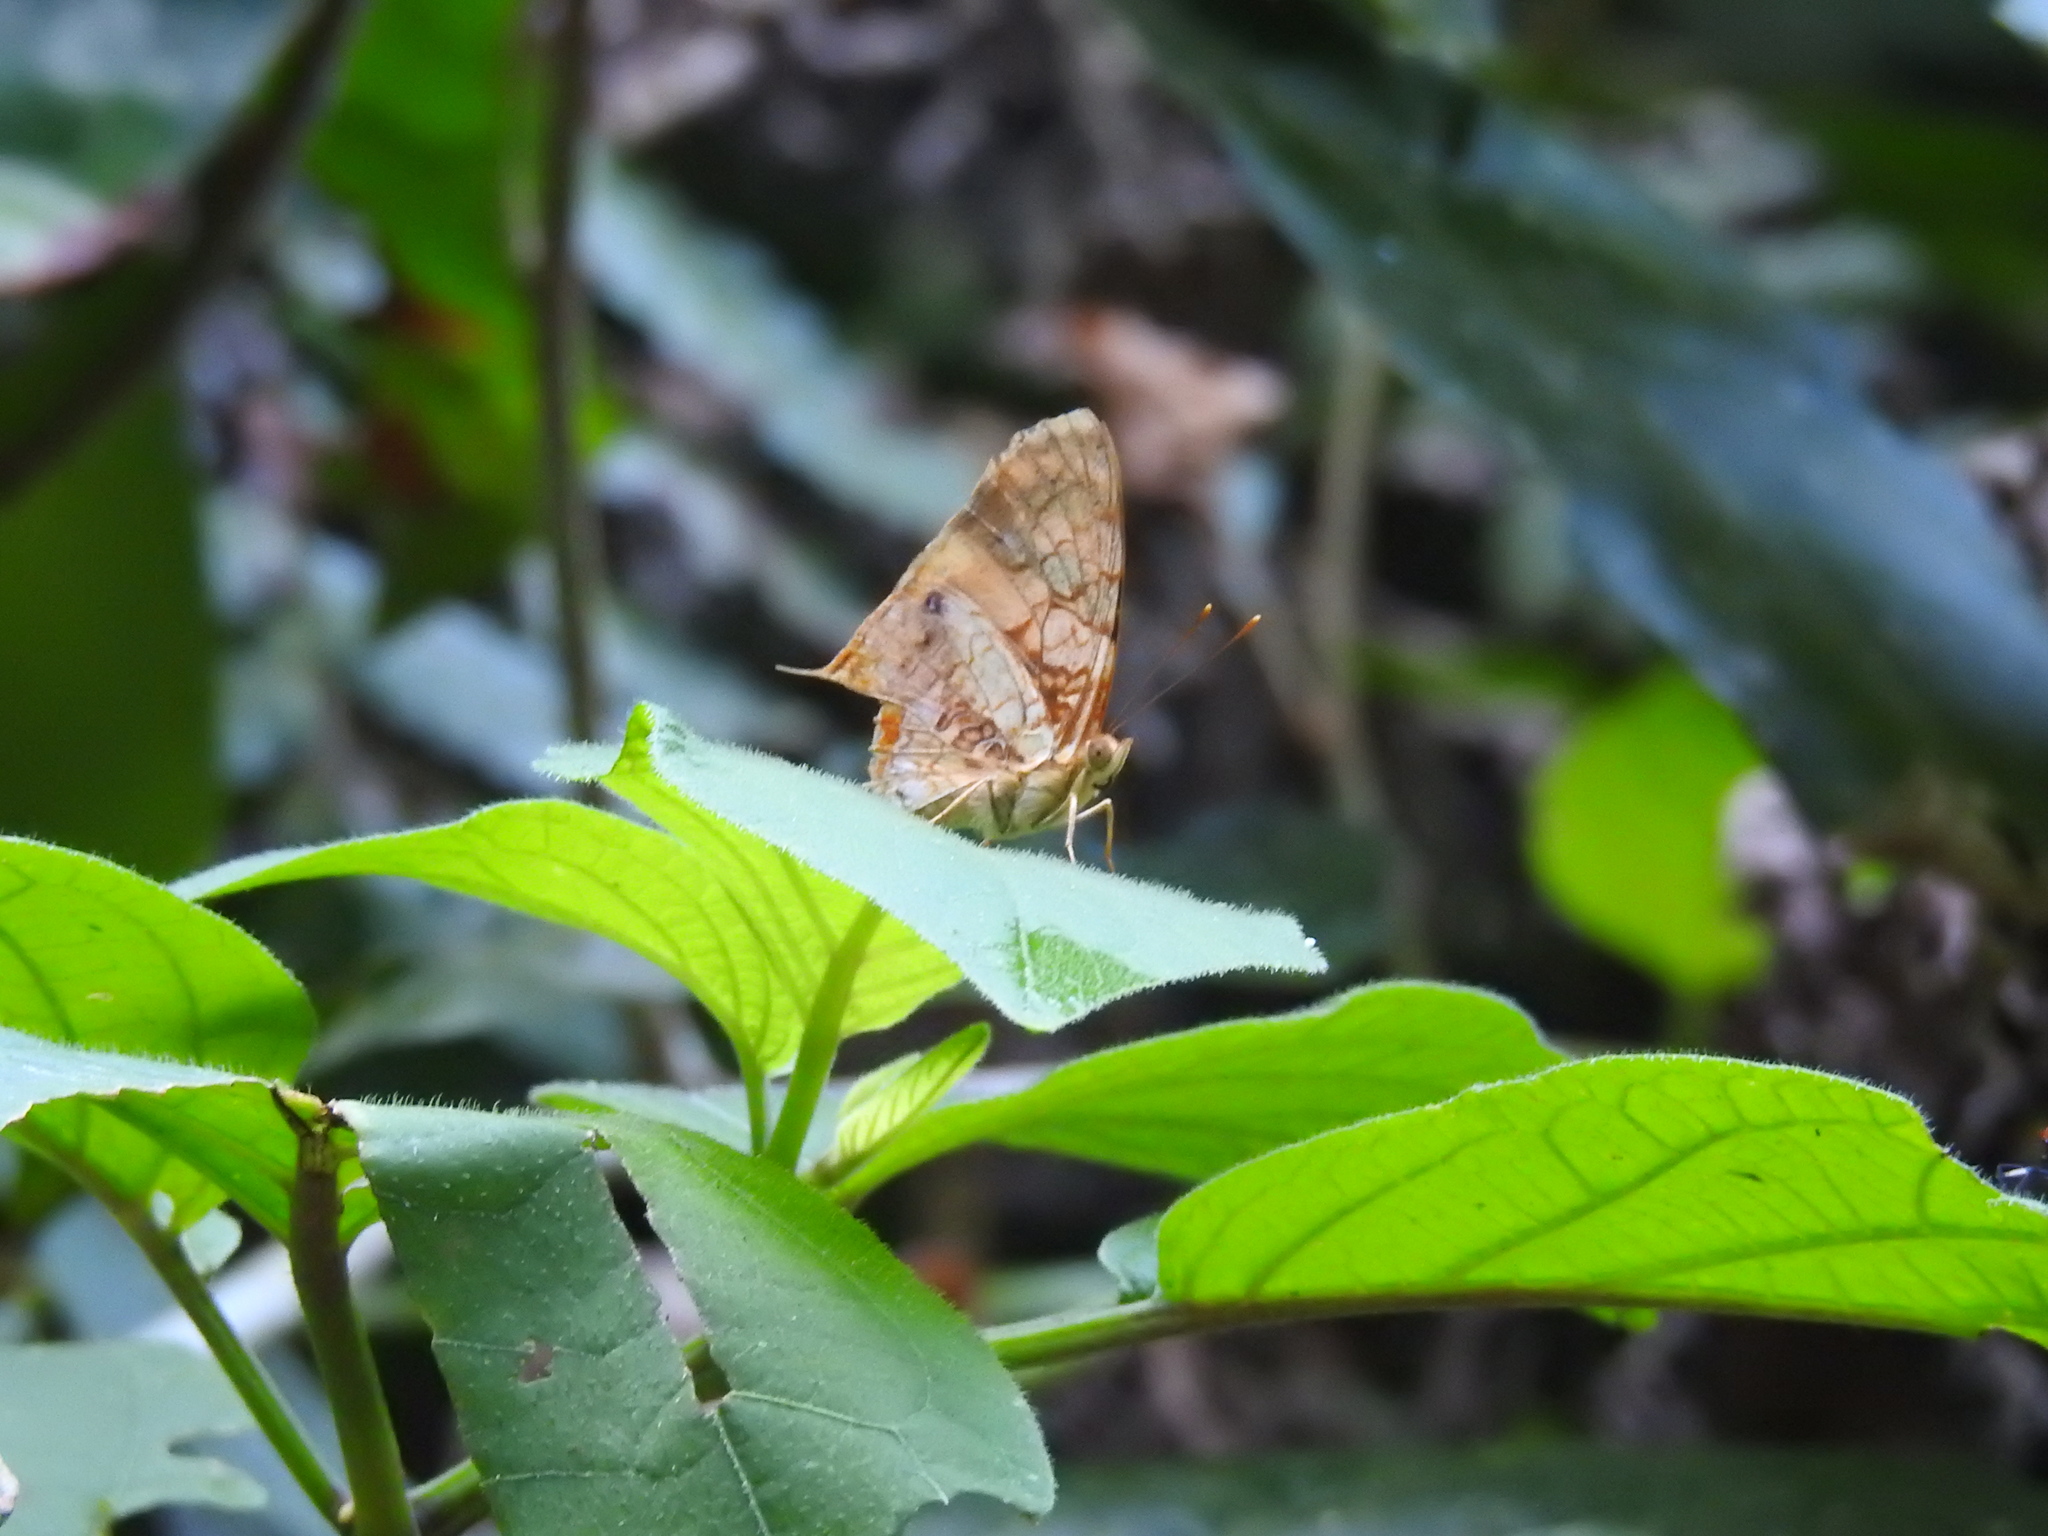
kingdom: Animalia
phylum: Arthropoda
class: Insecta
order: Lepidoptera
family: Nymphalidae
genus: Hypanartia
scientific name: Hypanartia lethe
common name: Orange mapwing
